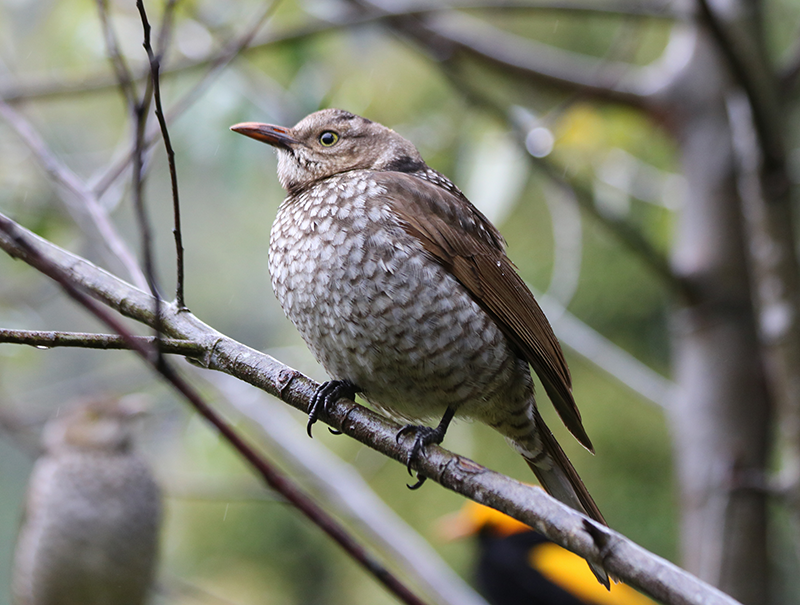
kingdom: Animalia
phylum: Chordata
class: Aves
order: Passeriformes
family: Ptilonorhynchidae
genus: Sericulus
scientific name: Sericulus chrysocephalus
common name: Regent bowerbird
